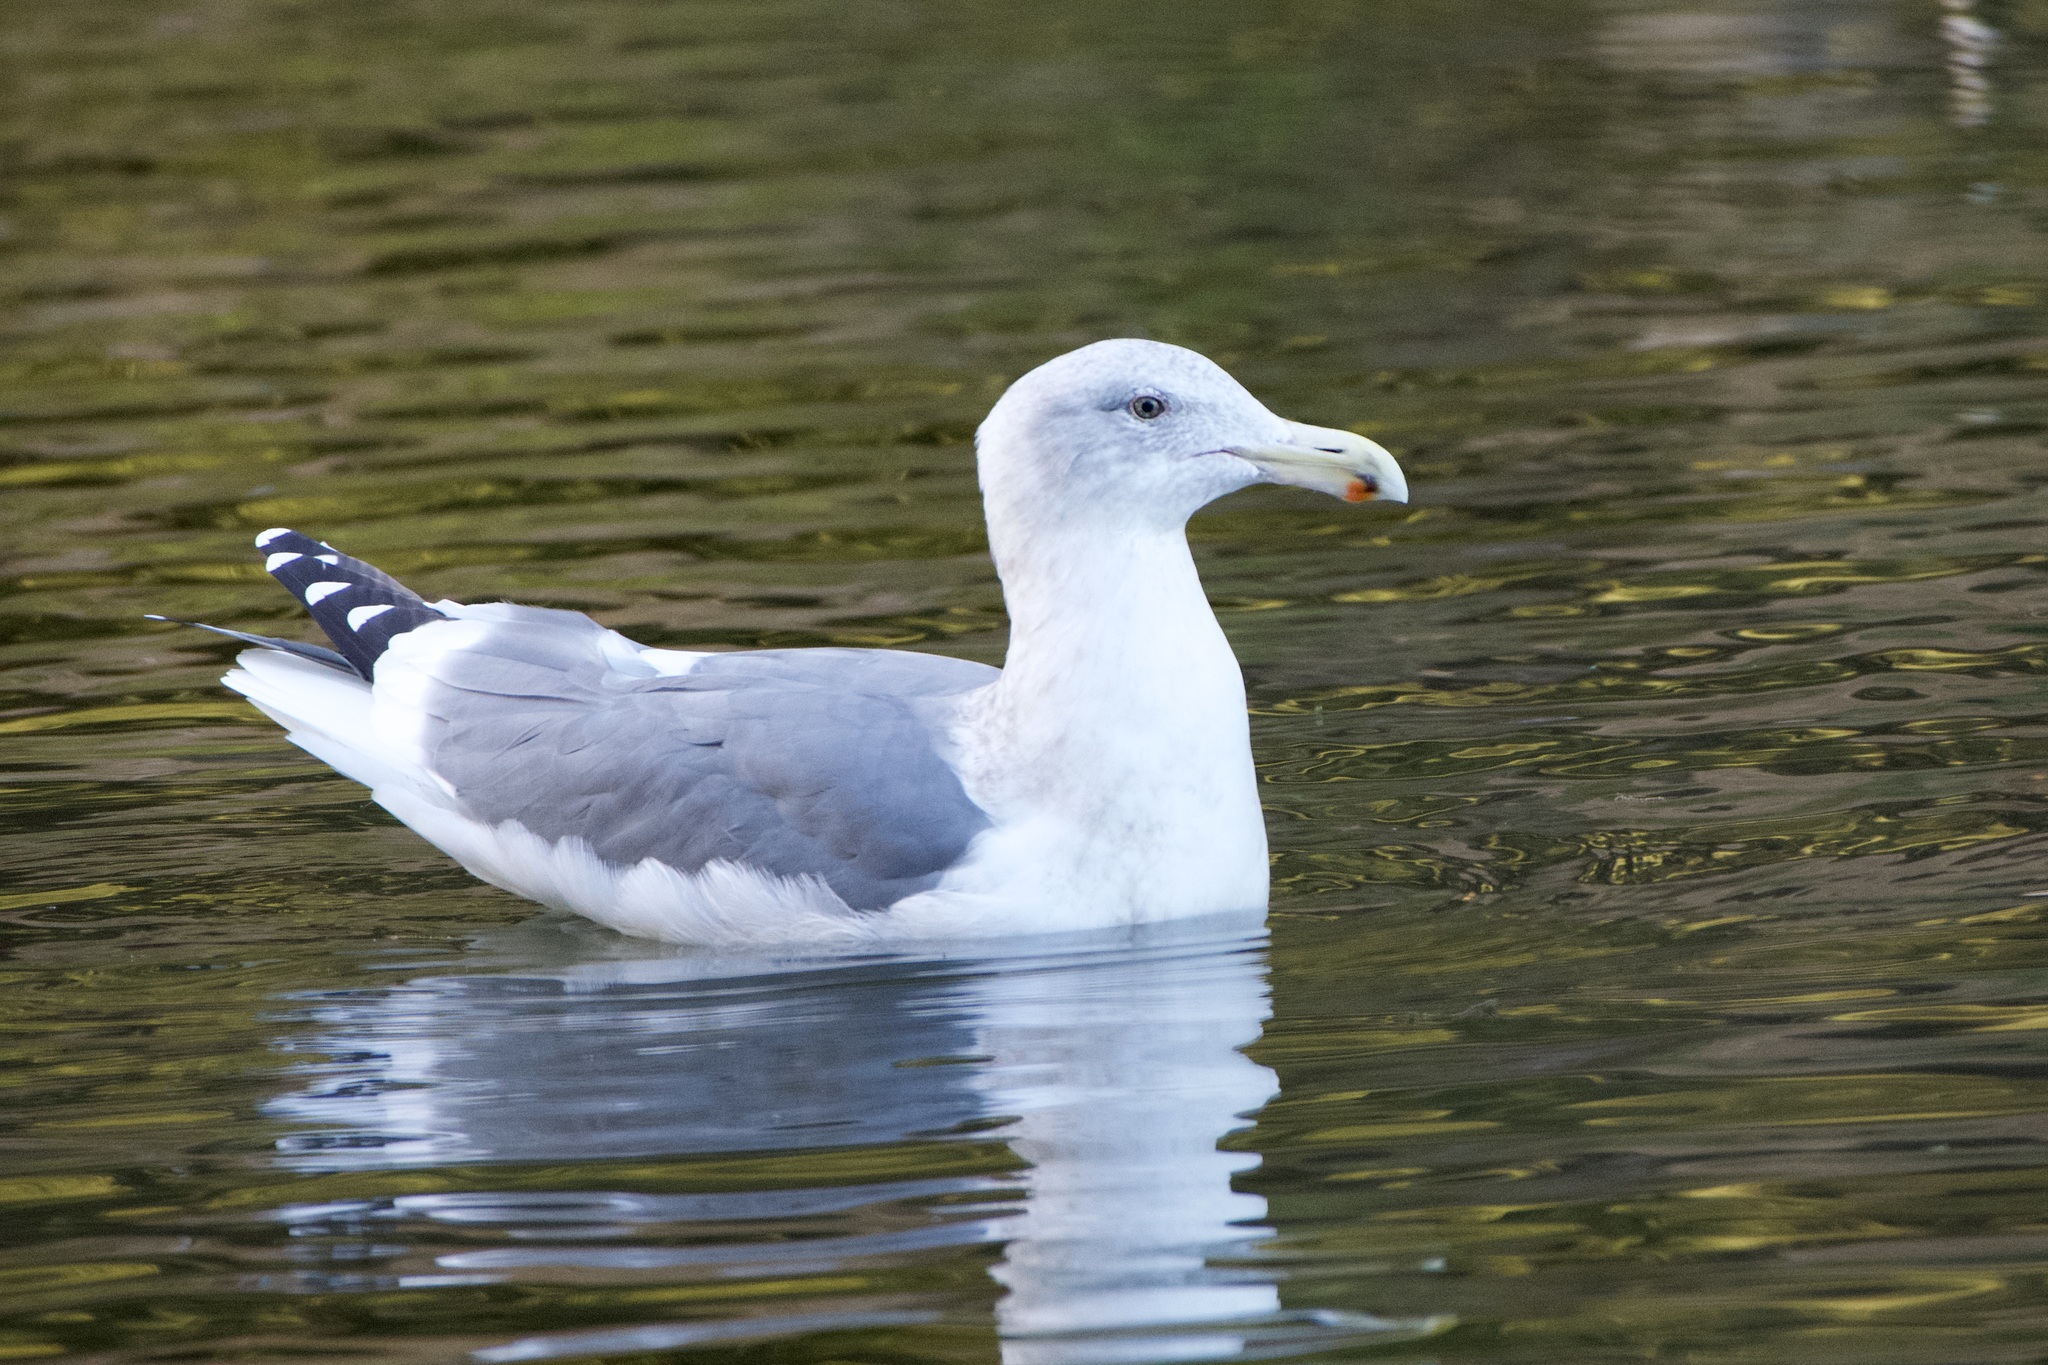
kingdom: Animalia
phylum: Chordata
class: Aves
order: Charadriiformes
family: Laridae
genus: Larus
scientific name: Larus
